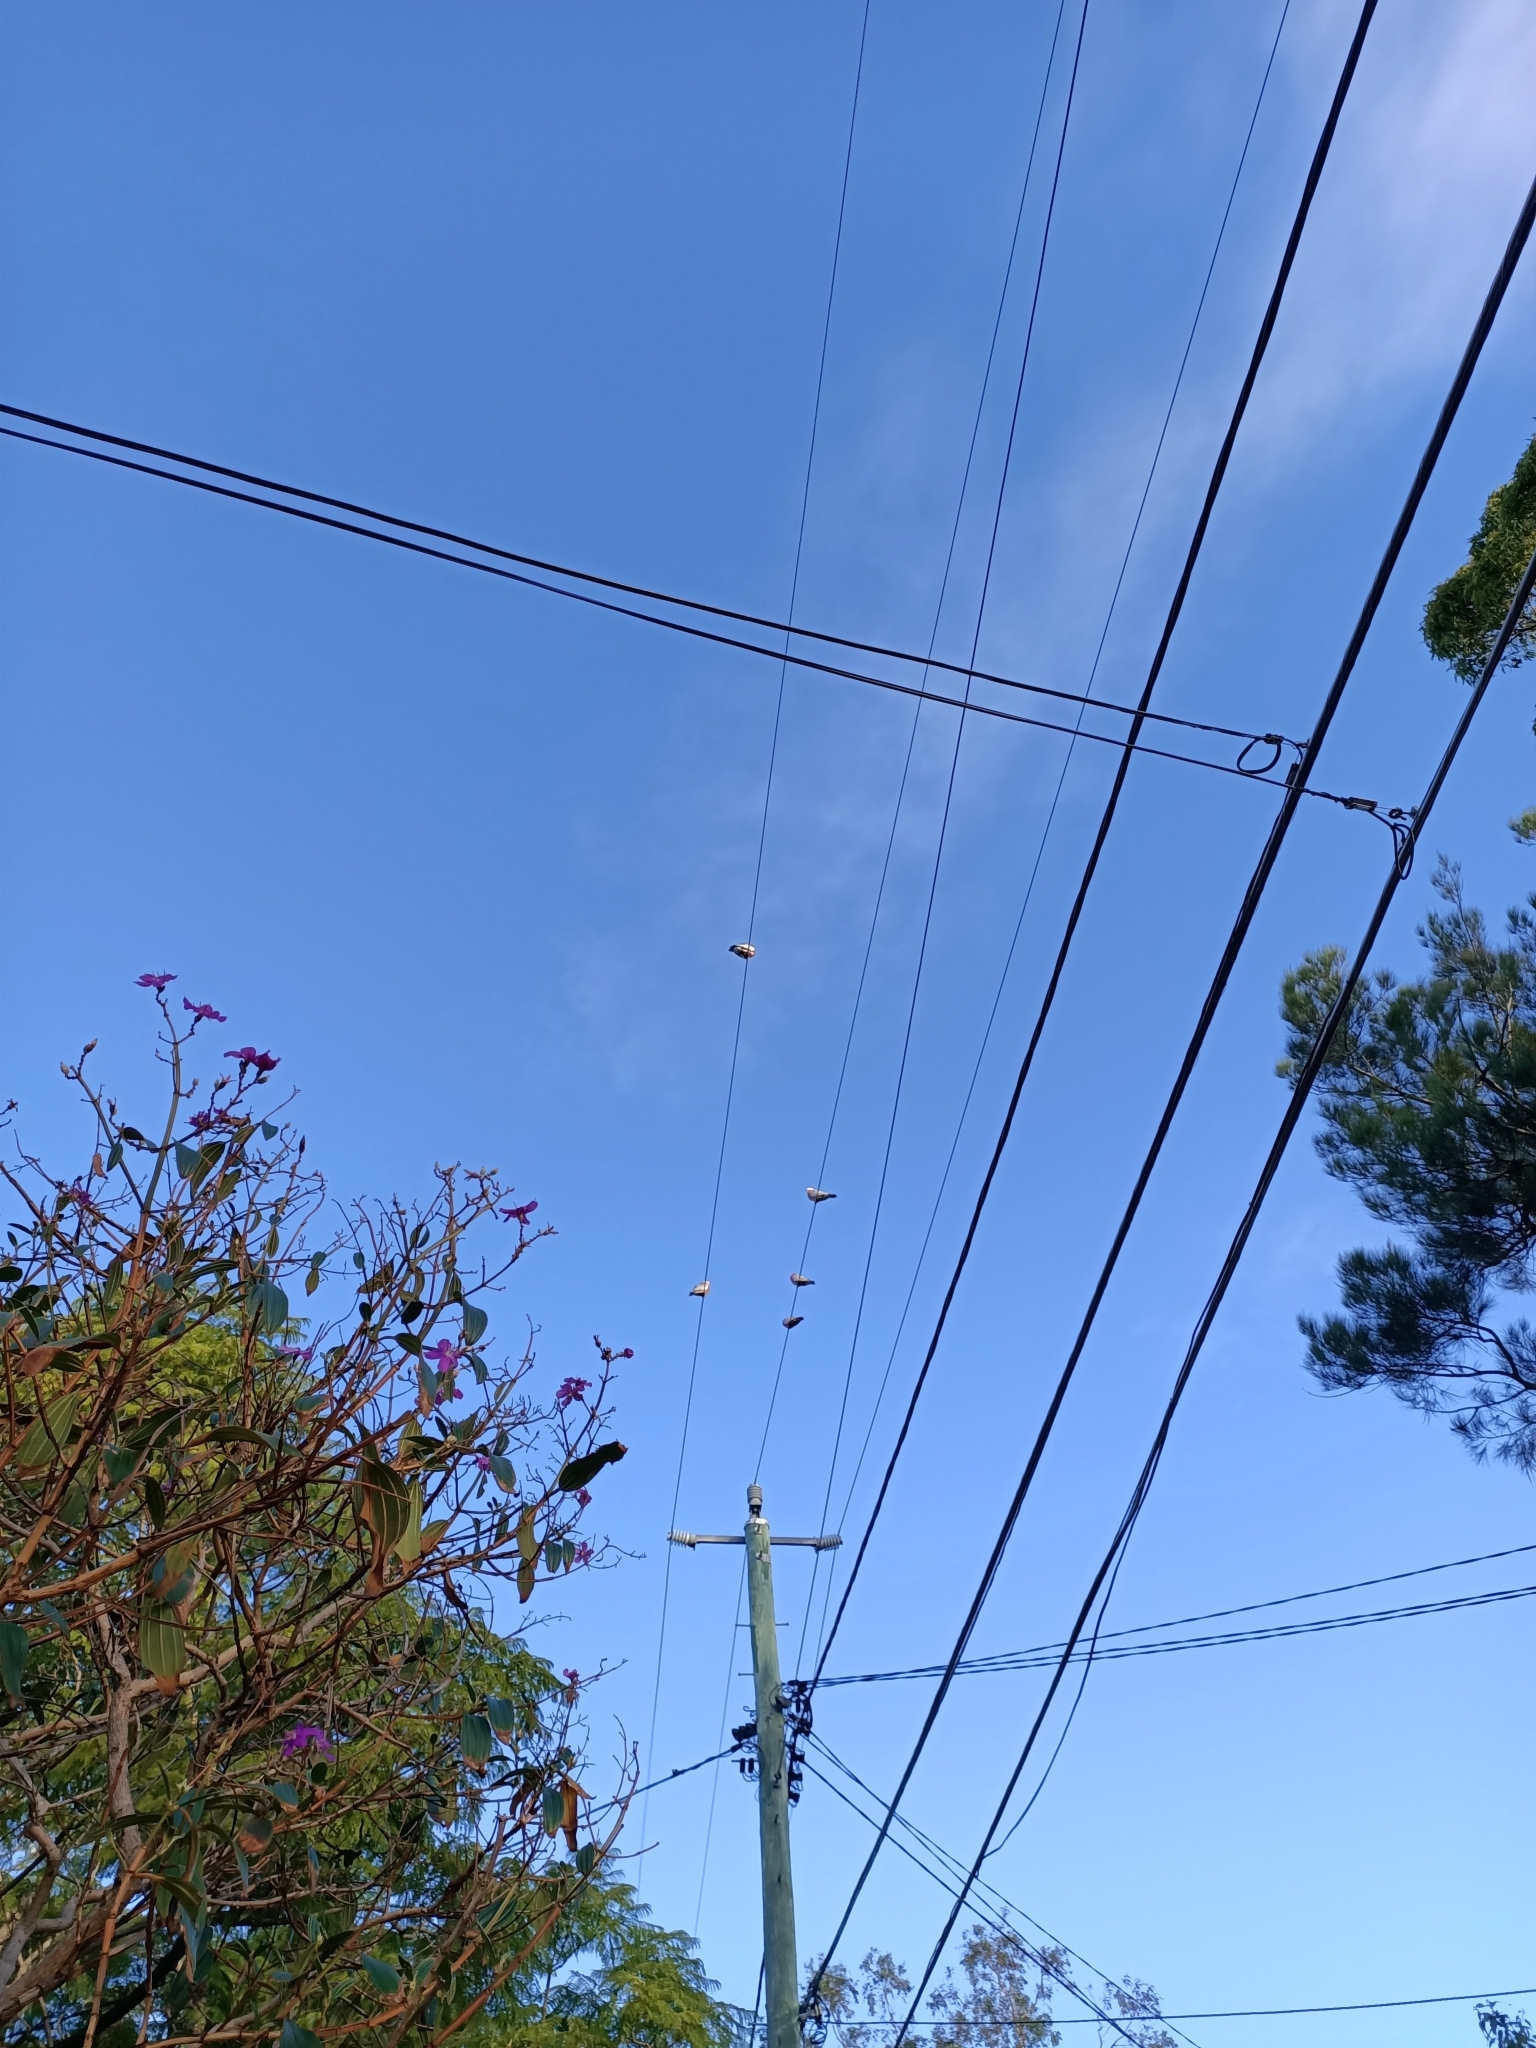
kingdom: Animalia
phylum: Chordata
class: Aves
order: Psittaciformes
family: Psittacidae
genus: Eolophus
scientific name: Eolophus roseicapilla
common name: Galah
